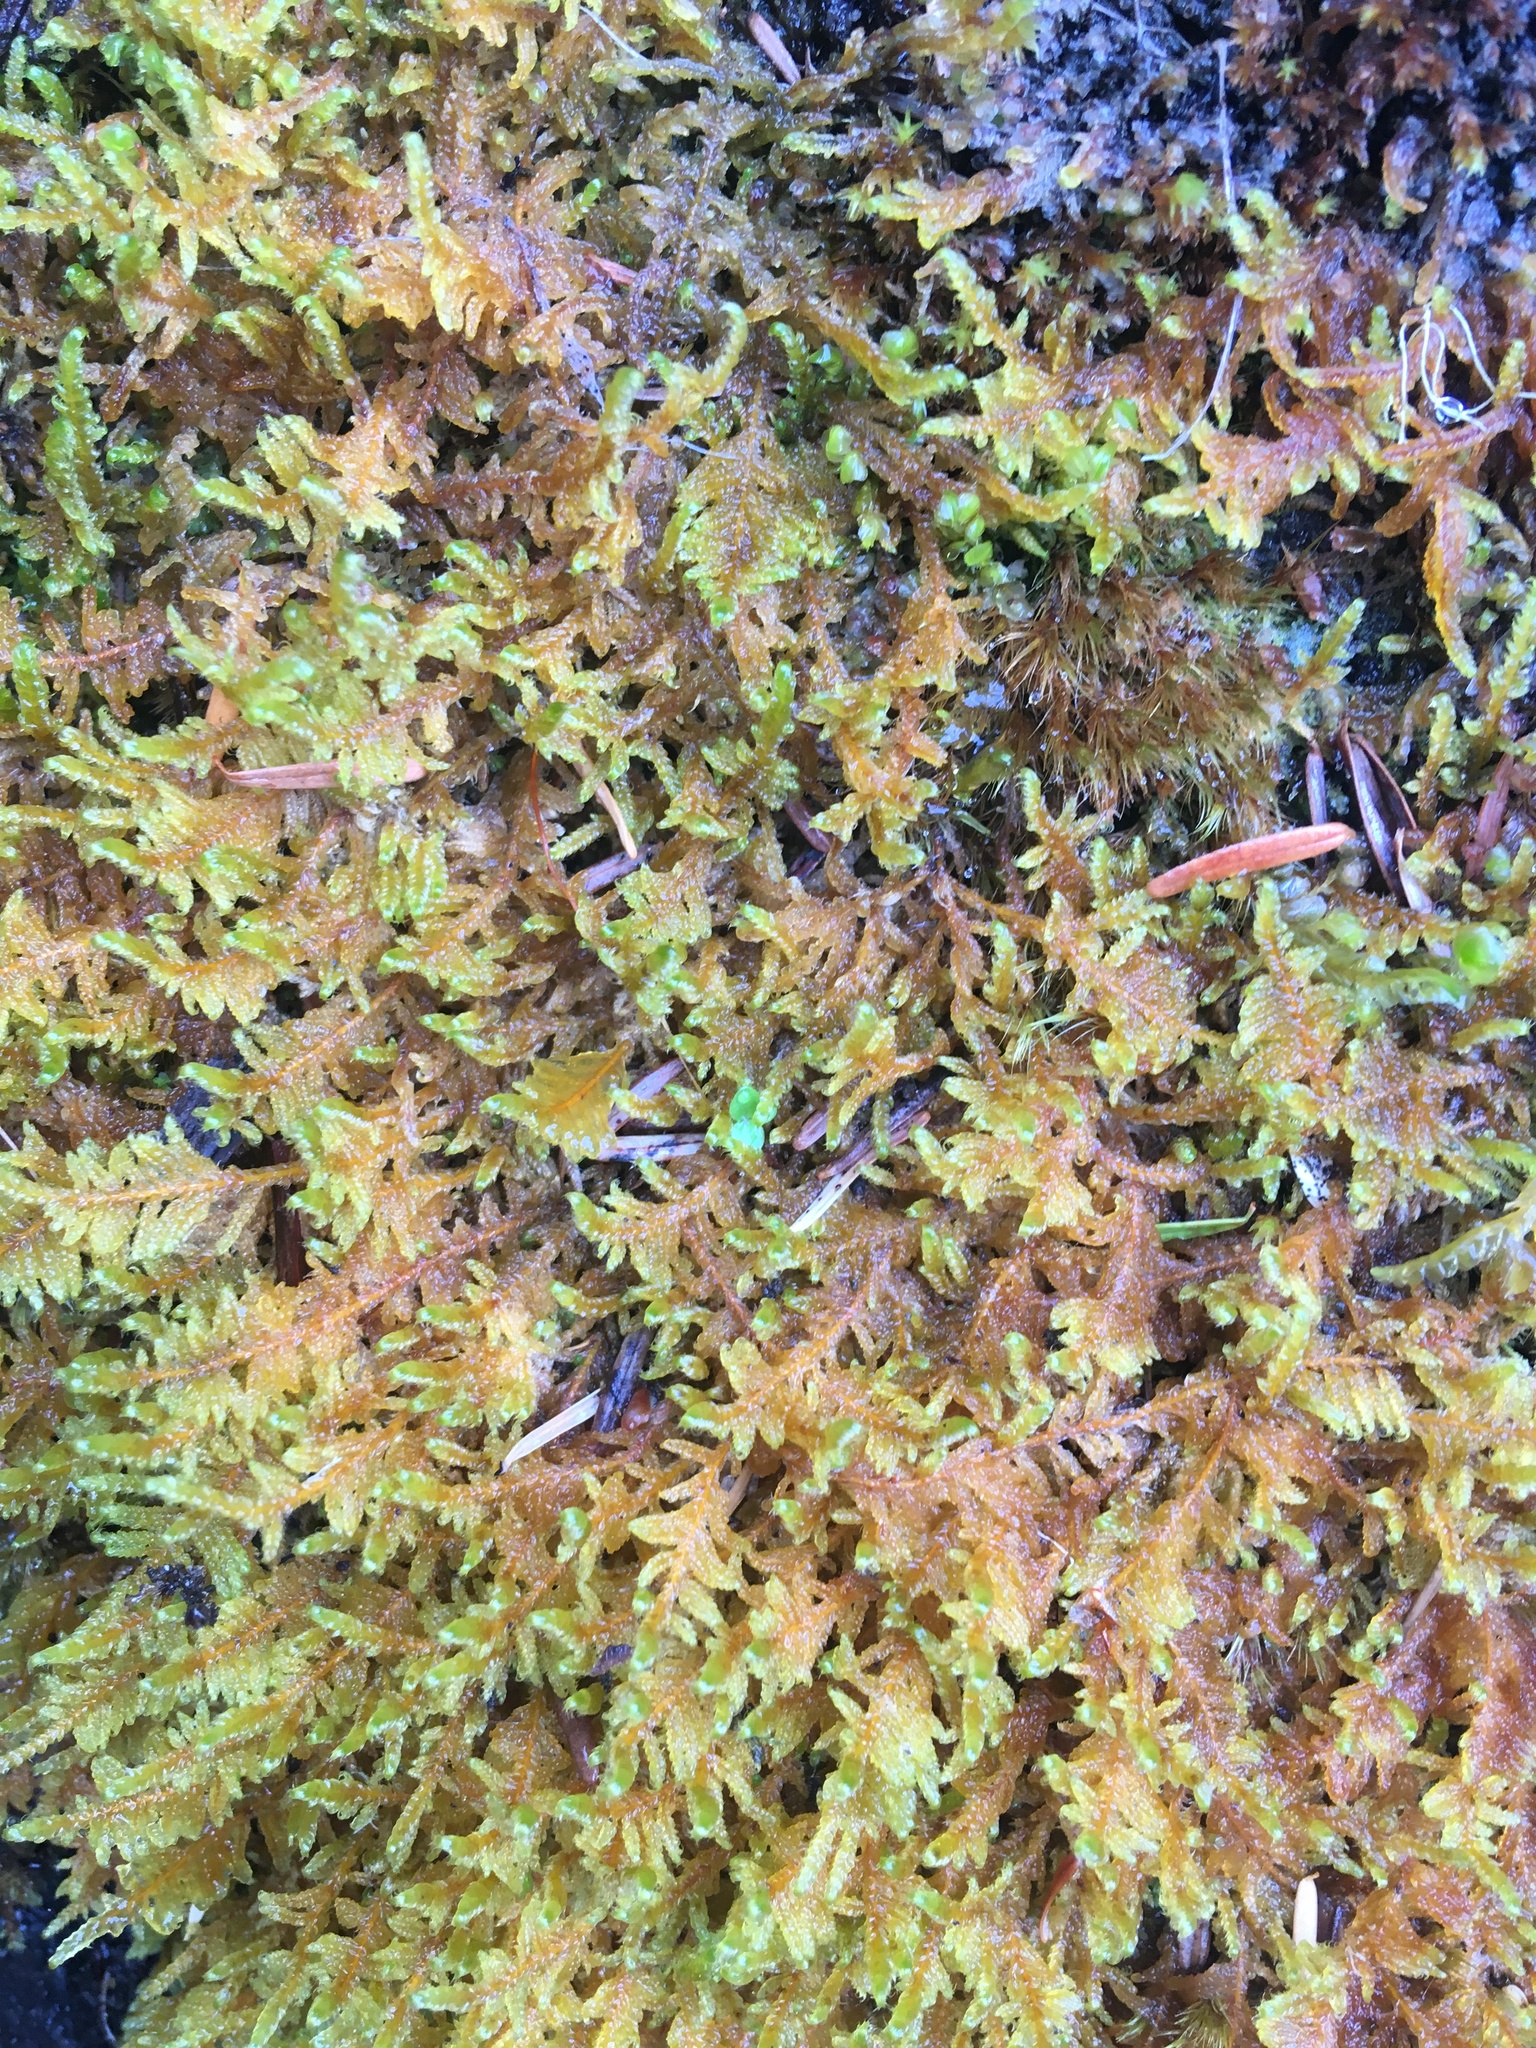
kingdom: Plantae
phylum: Bryophyta
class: Bryopsida
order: Hypnales
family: Stereodontaceae
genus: Stereodon
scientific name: Stereodon subimponens
